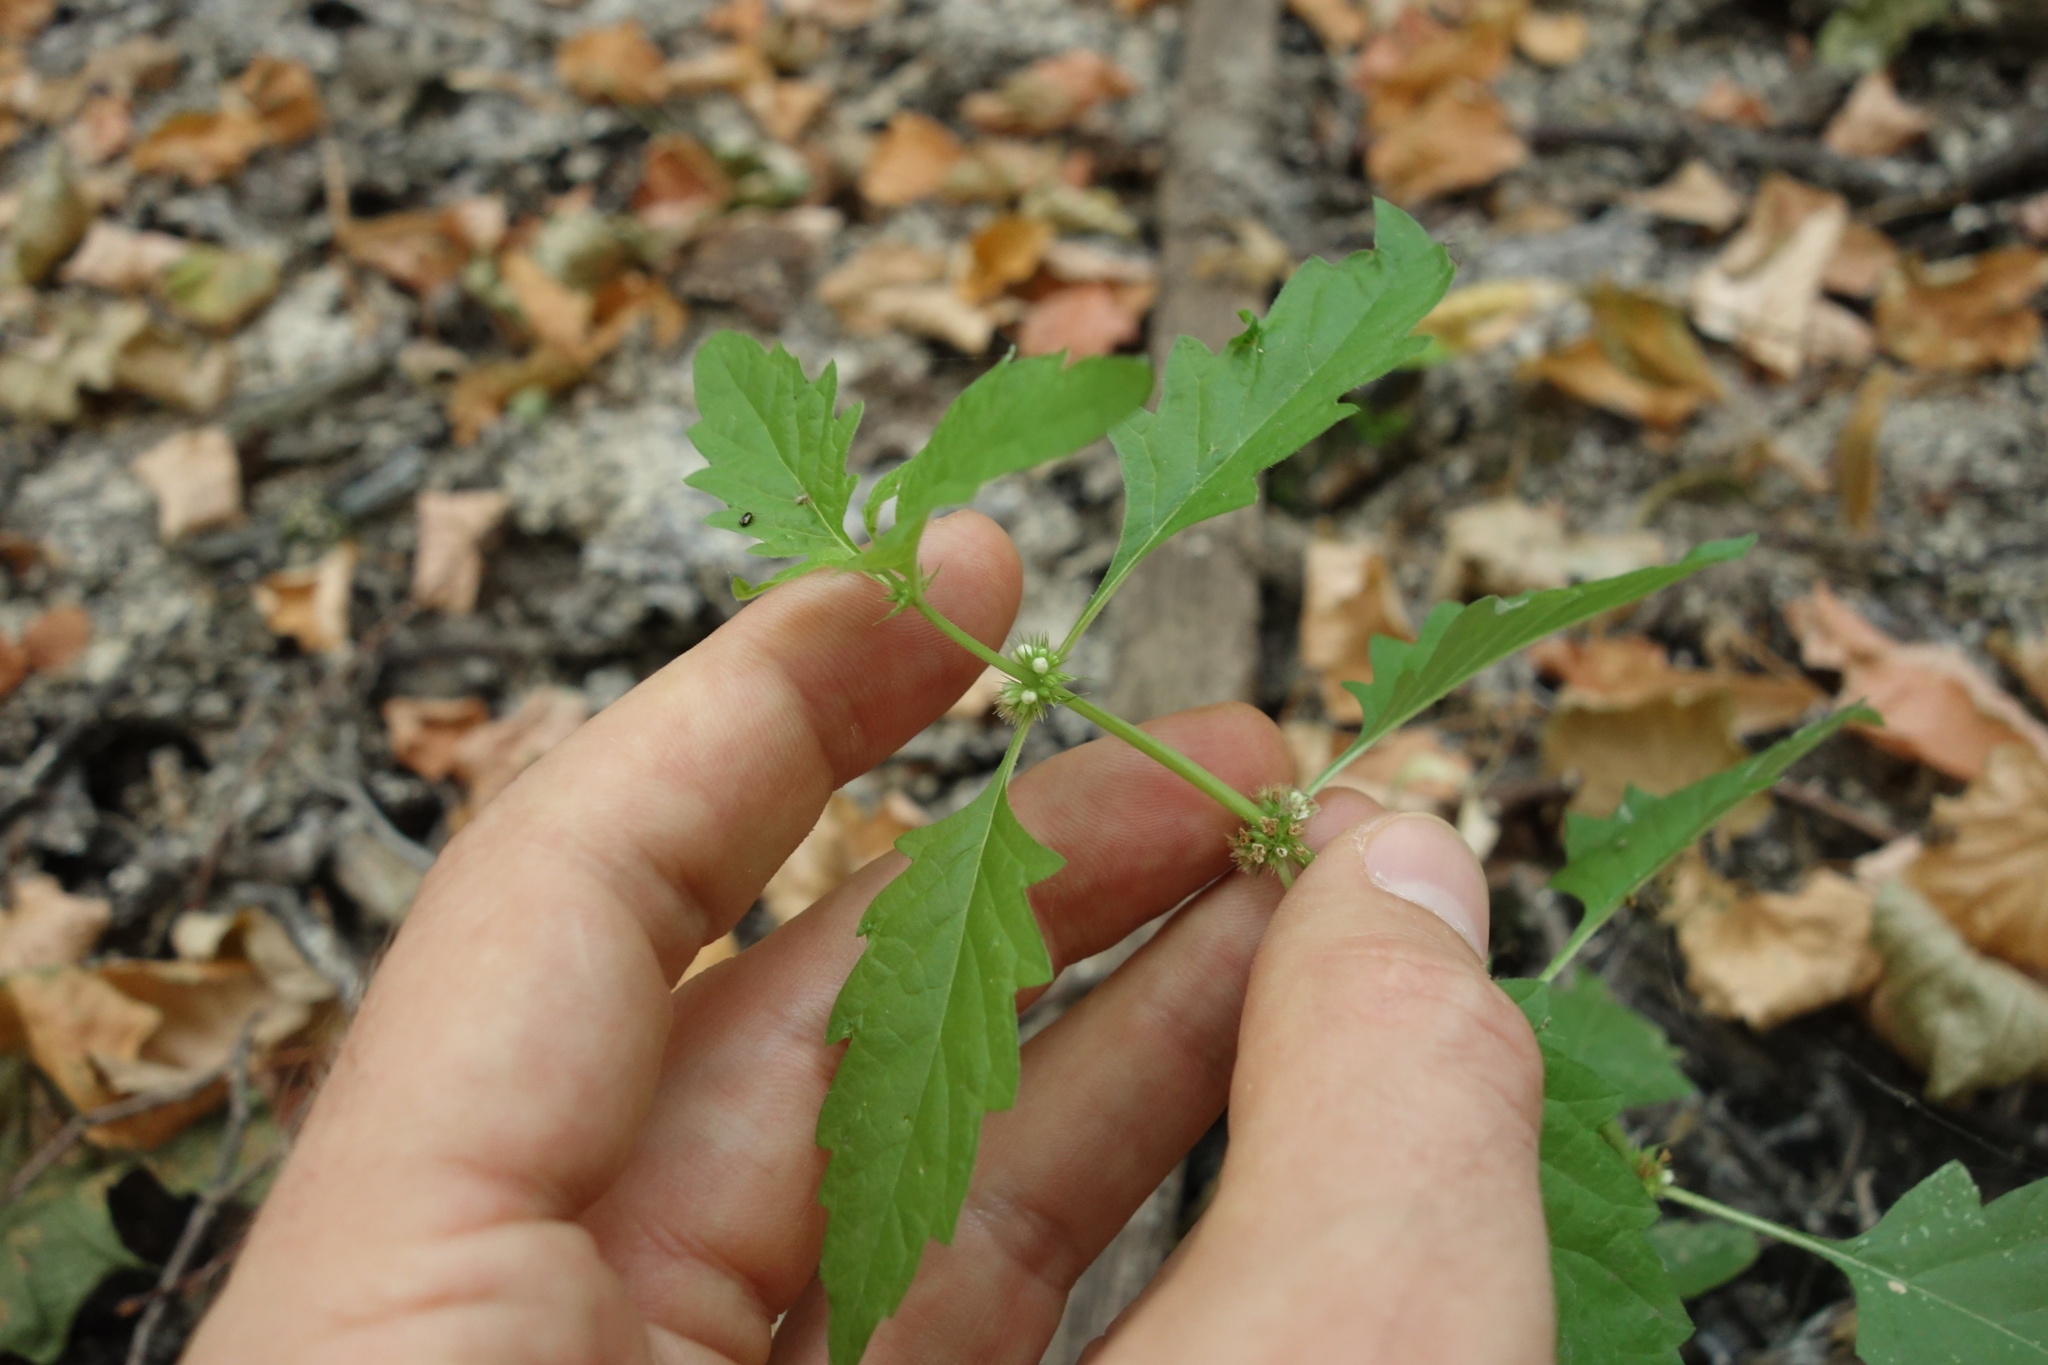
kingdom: Plantae
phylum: Tracheophyta
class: Magnoliopsida
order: Lamiales
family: Lamiaceae
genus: Lycopus
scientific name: Lycopus europaeus
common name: European bugleweed
